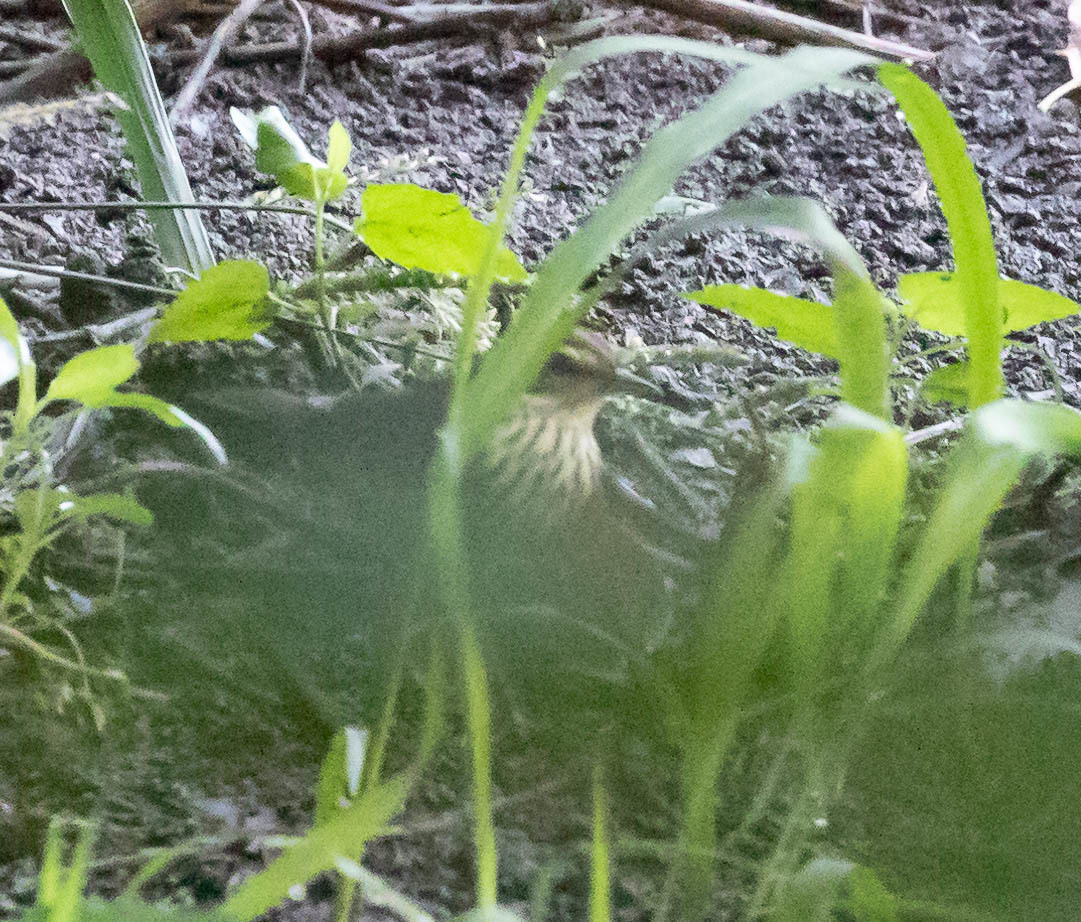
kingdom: Animalia
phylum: Chordata
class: Aves
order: Passeriformes
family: Parulidae
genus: Parkesia
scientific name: Parkesia noveboracensis
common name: Northern waterthrush
